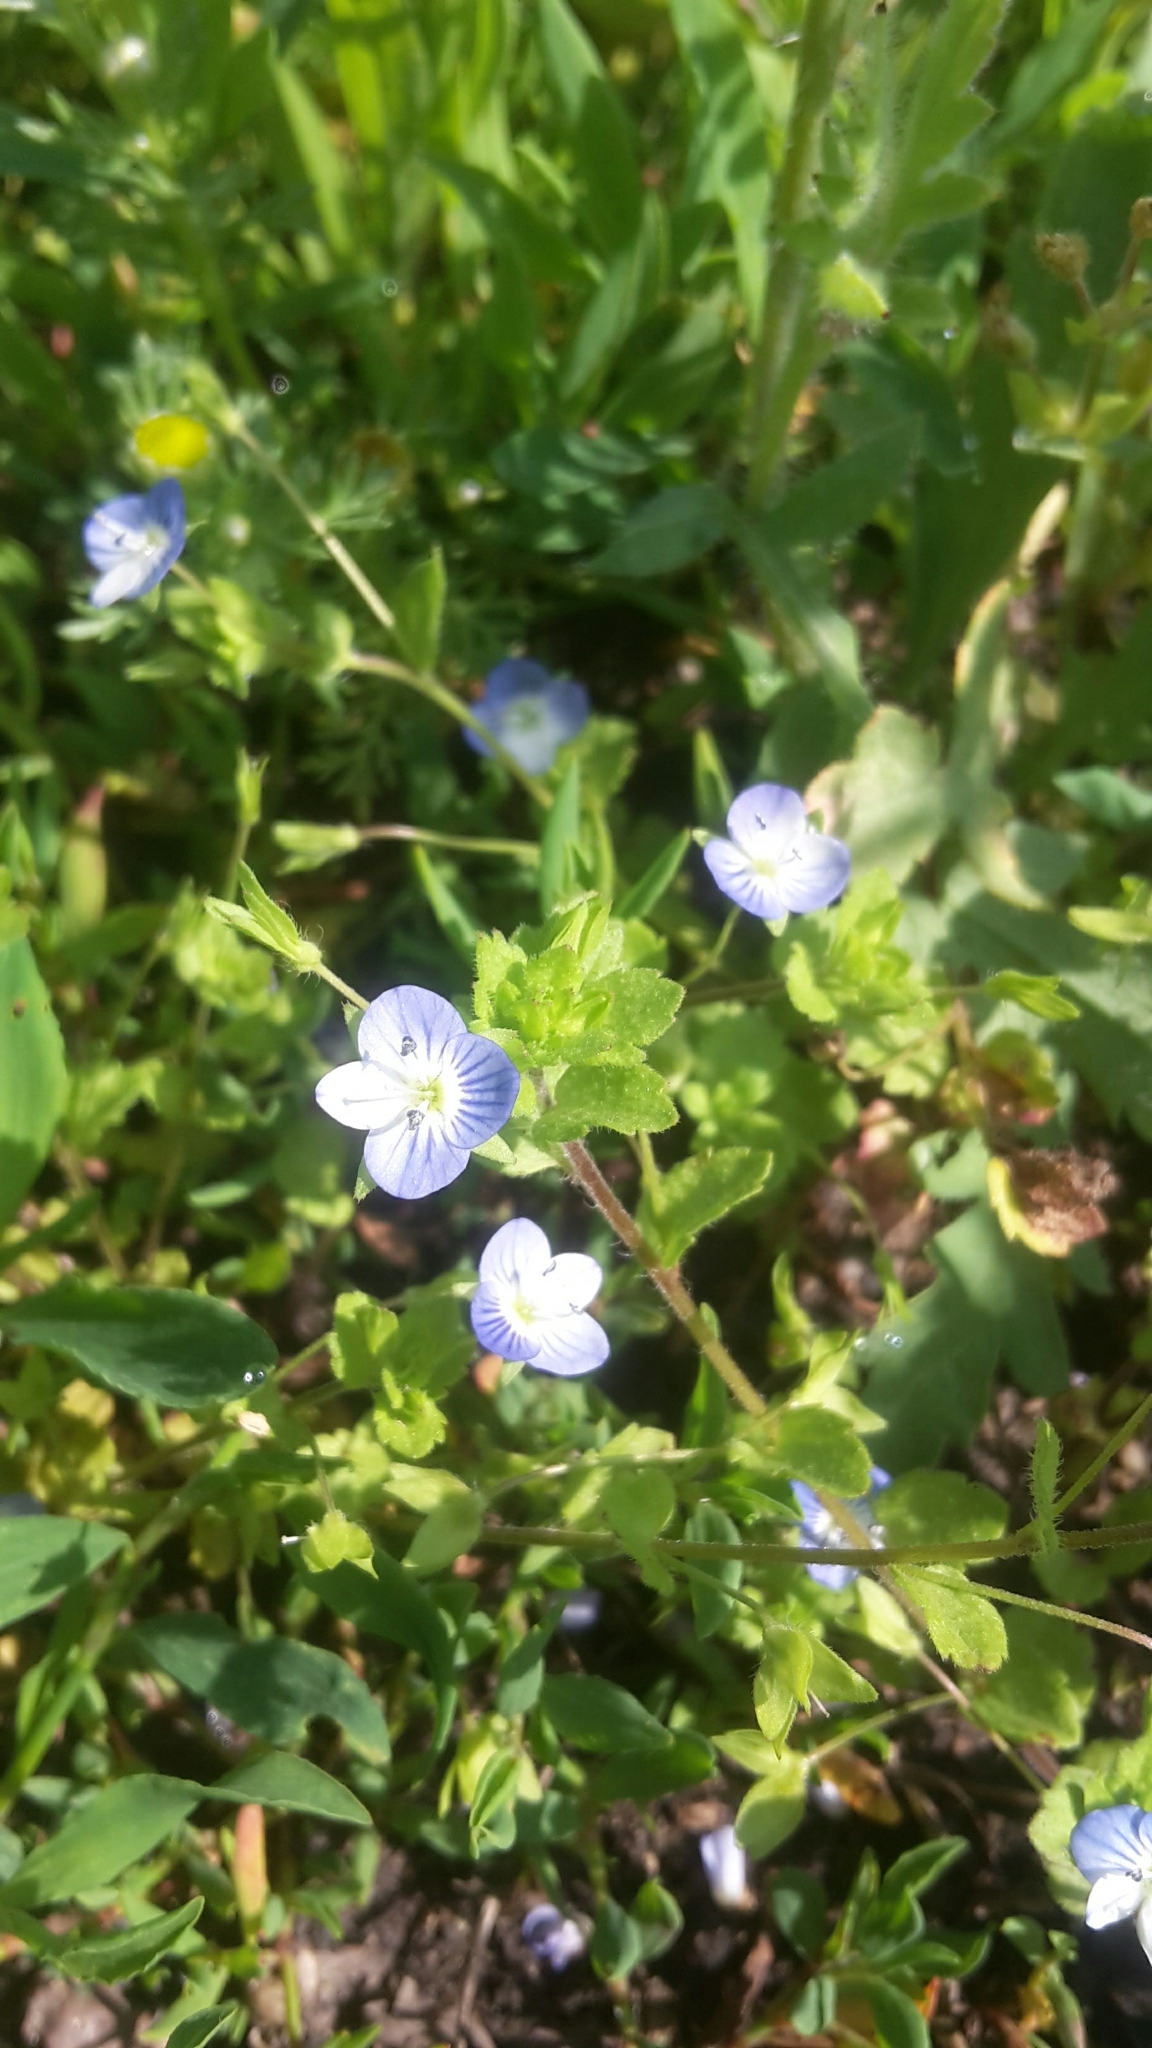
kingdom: Plantae
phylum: Tracheophyta
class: Magnoliopsida
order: Lamiales
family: Plantaginaceae
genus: Veronica
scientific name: Veronica persica
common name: Common field-speedwell
